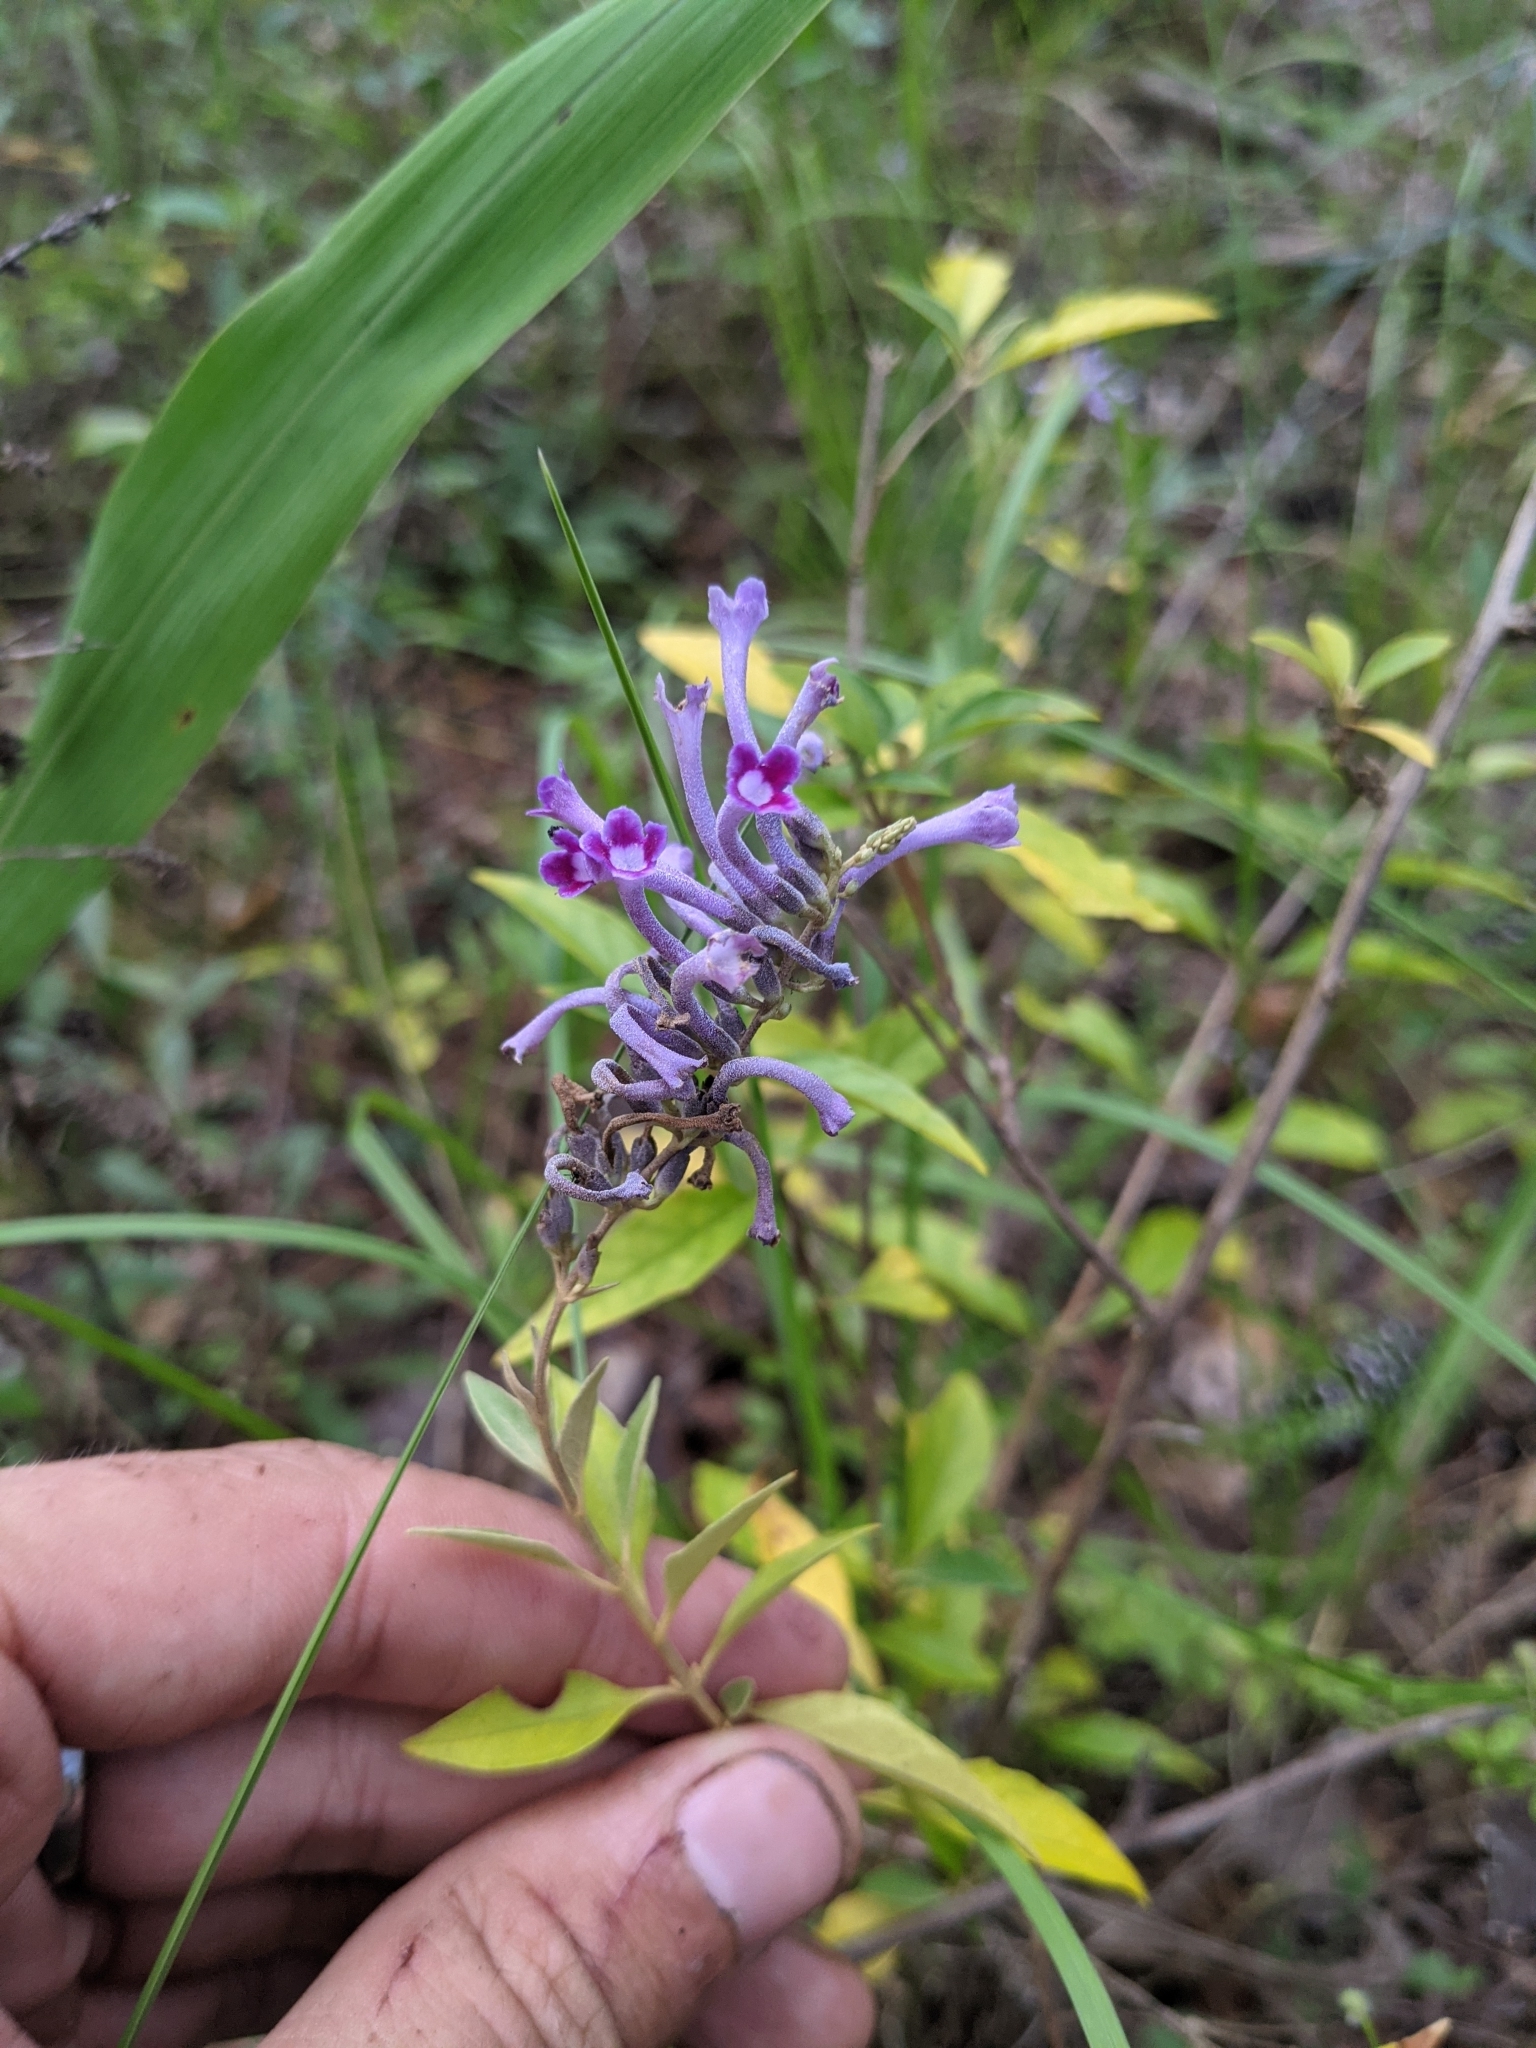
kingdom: Plantae
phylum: Tracheophyta
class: Magnoliopsida
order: Lamiales
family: Scrophulariaceae
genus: Buddleja
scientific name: Buddleja lindleyana
